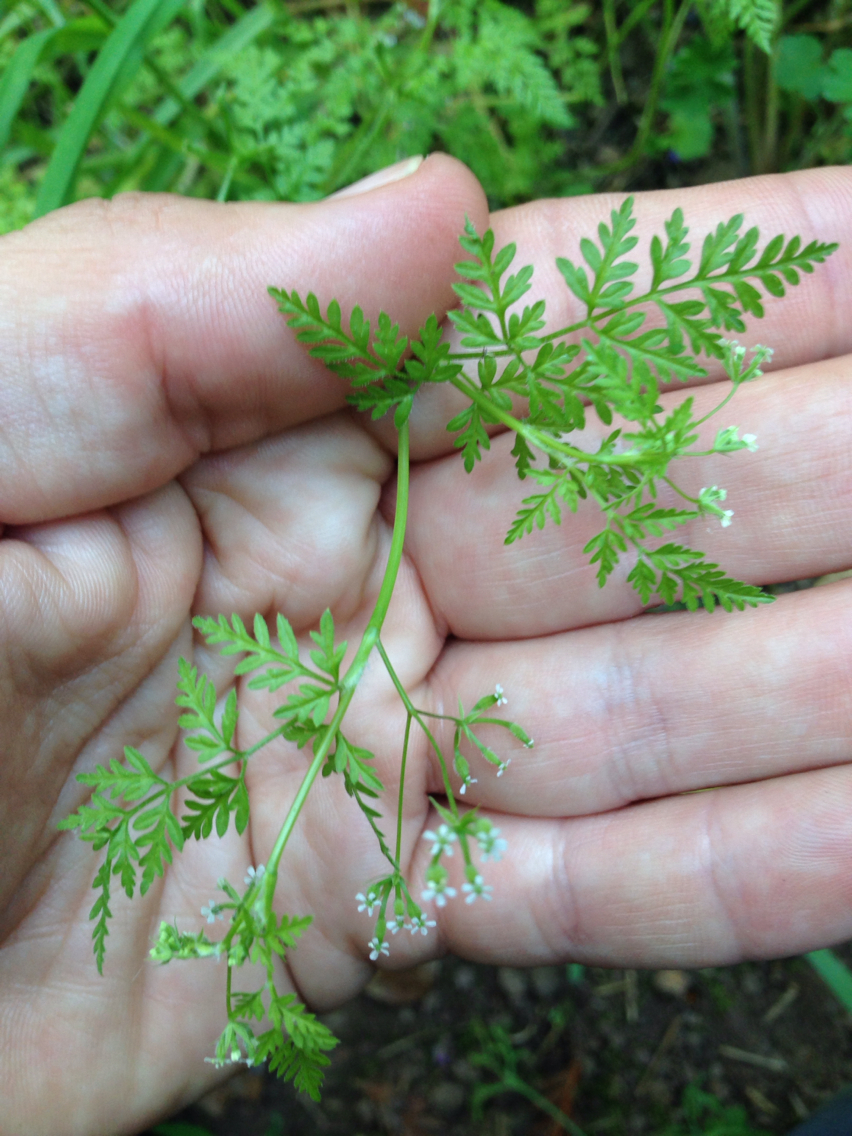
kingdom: Plantae
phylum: Tracheophyta
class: Magnoliopsida
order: Apiales
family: Apiaceae
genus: Anthriscus
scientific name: Anthriscus caucalis
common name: Bur chervil
